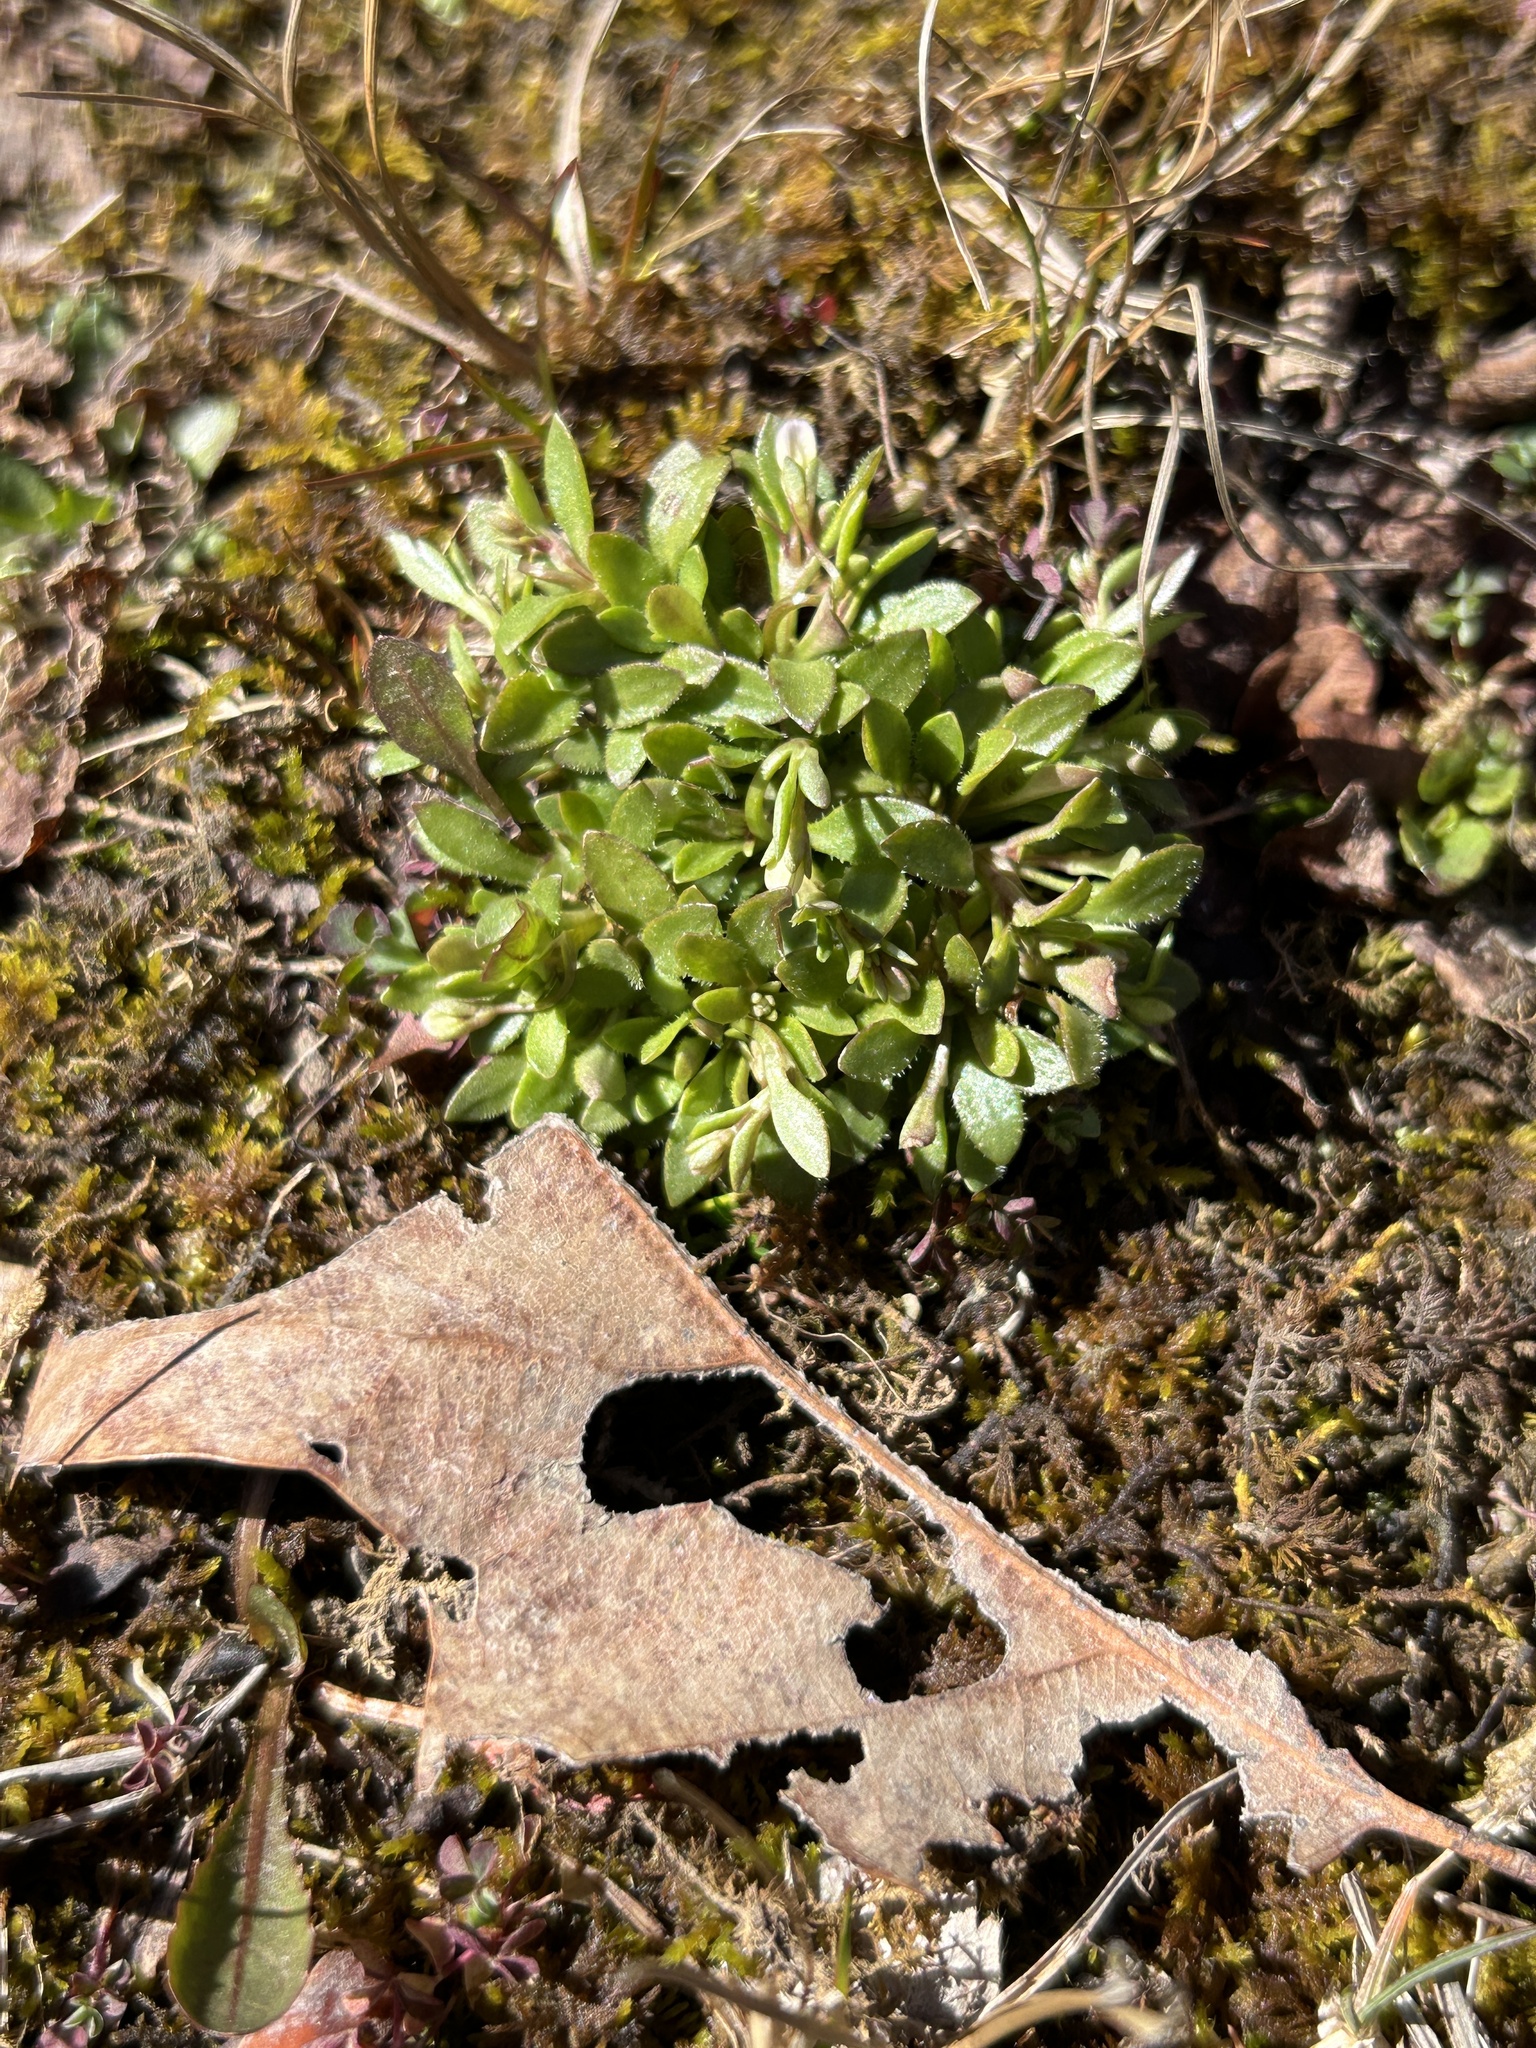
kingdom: Plantae
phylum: Tracheophyta
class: Magnoliopsida
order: Gentianales
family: Rubiaceae
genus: Houstonia
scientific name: Houstonia caerulea
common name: Bluets
